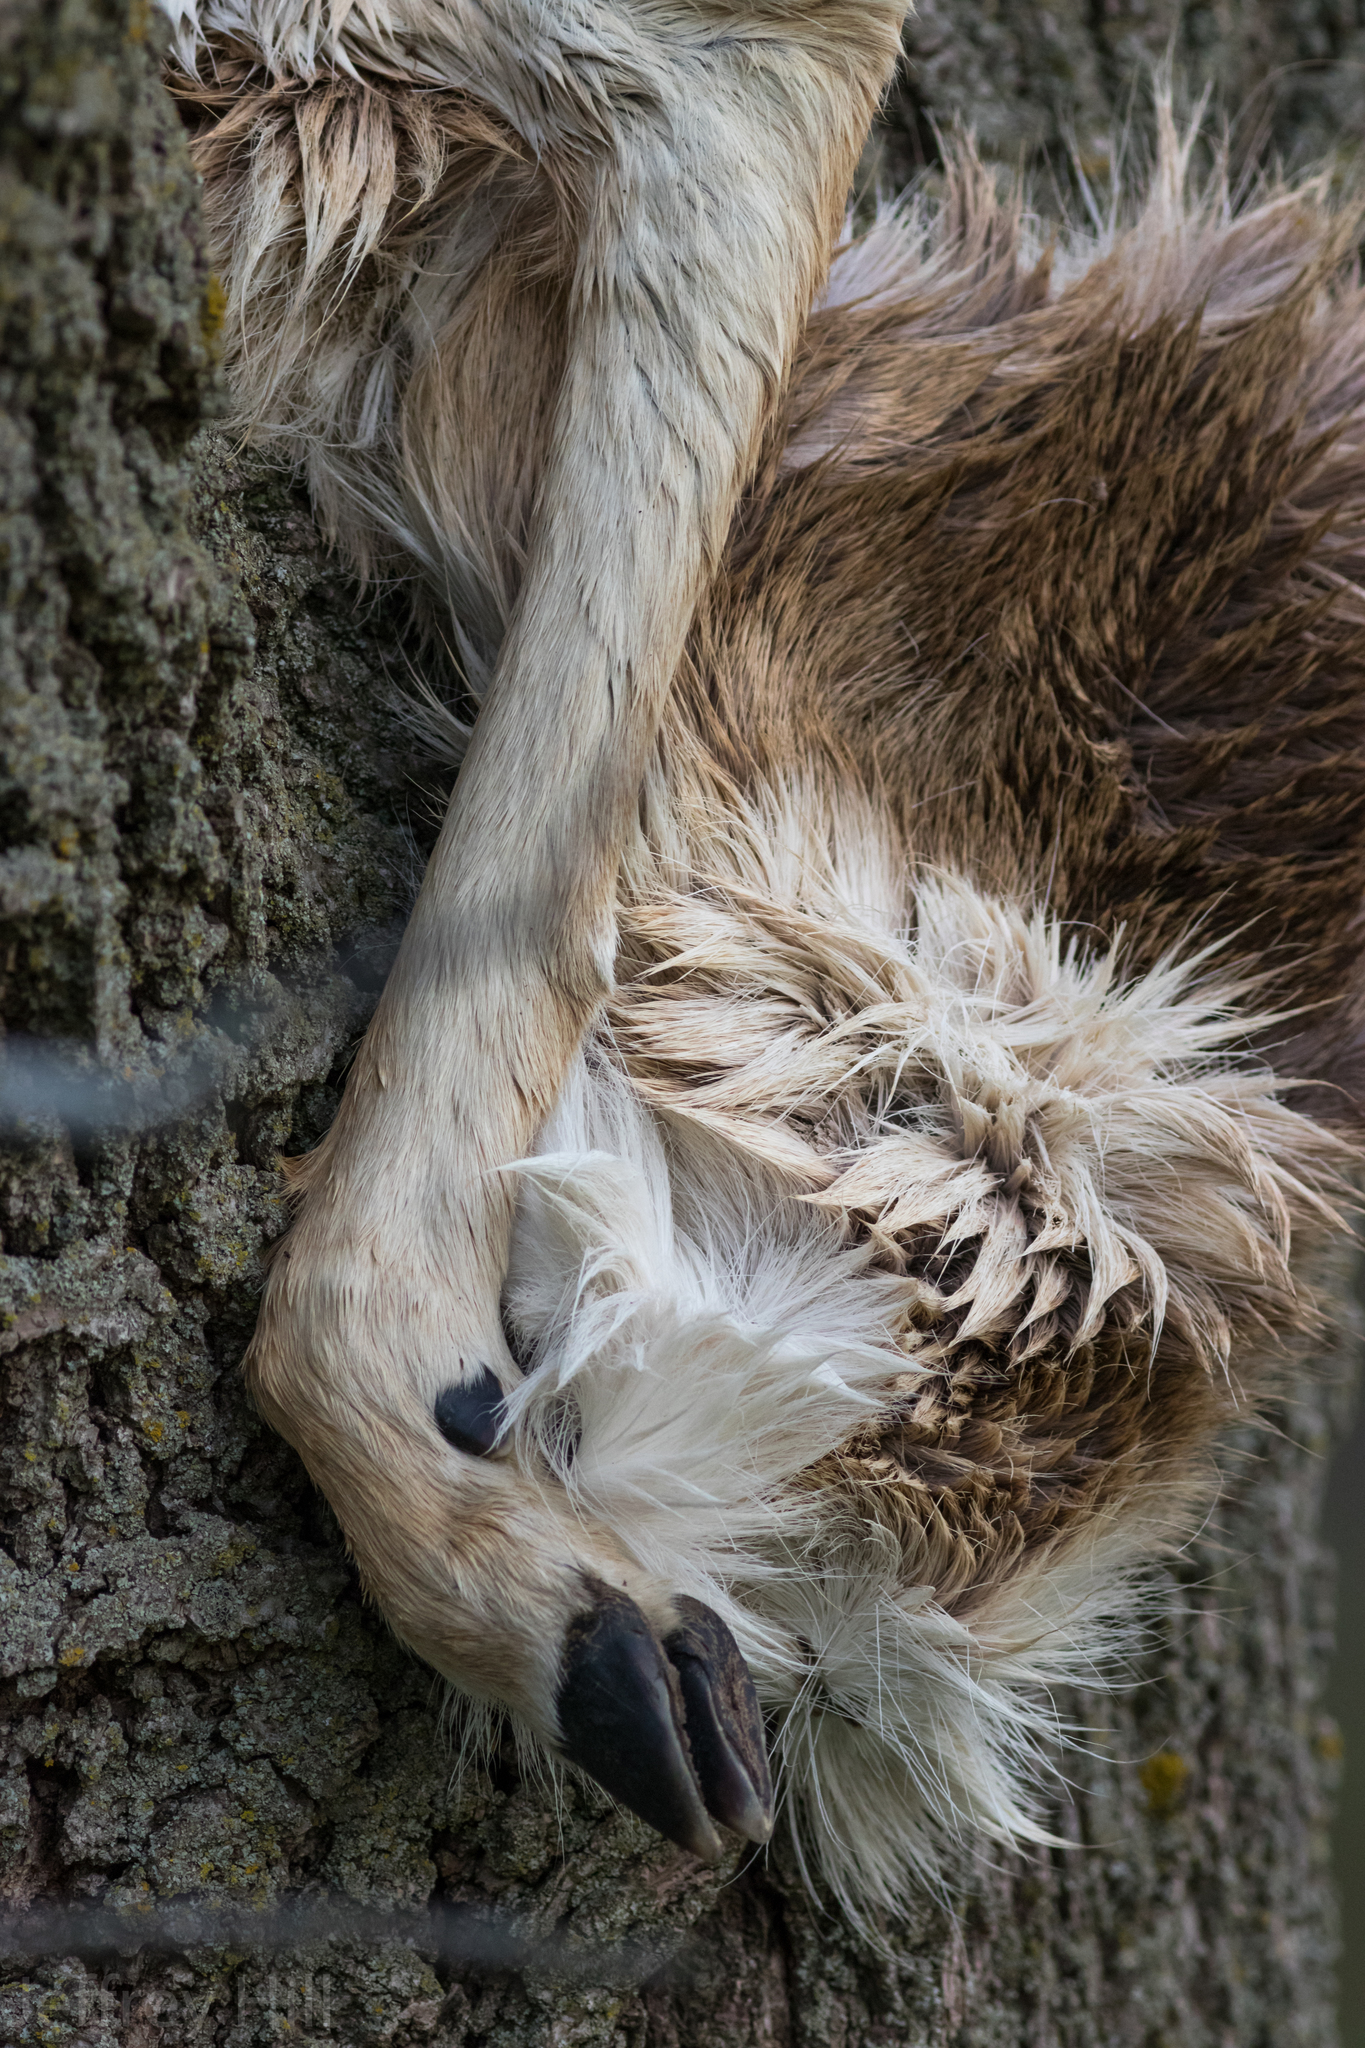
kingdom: Animalia
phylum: Chordata
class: Mammalia
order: Artiodactyla
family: Cervidae
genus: Odocoileus
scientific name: Odocoileus virginianus
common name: White-tailed deer
